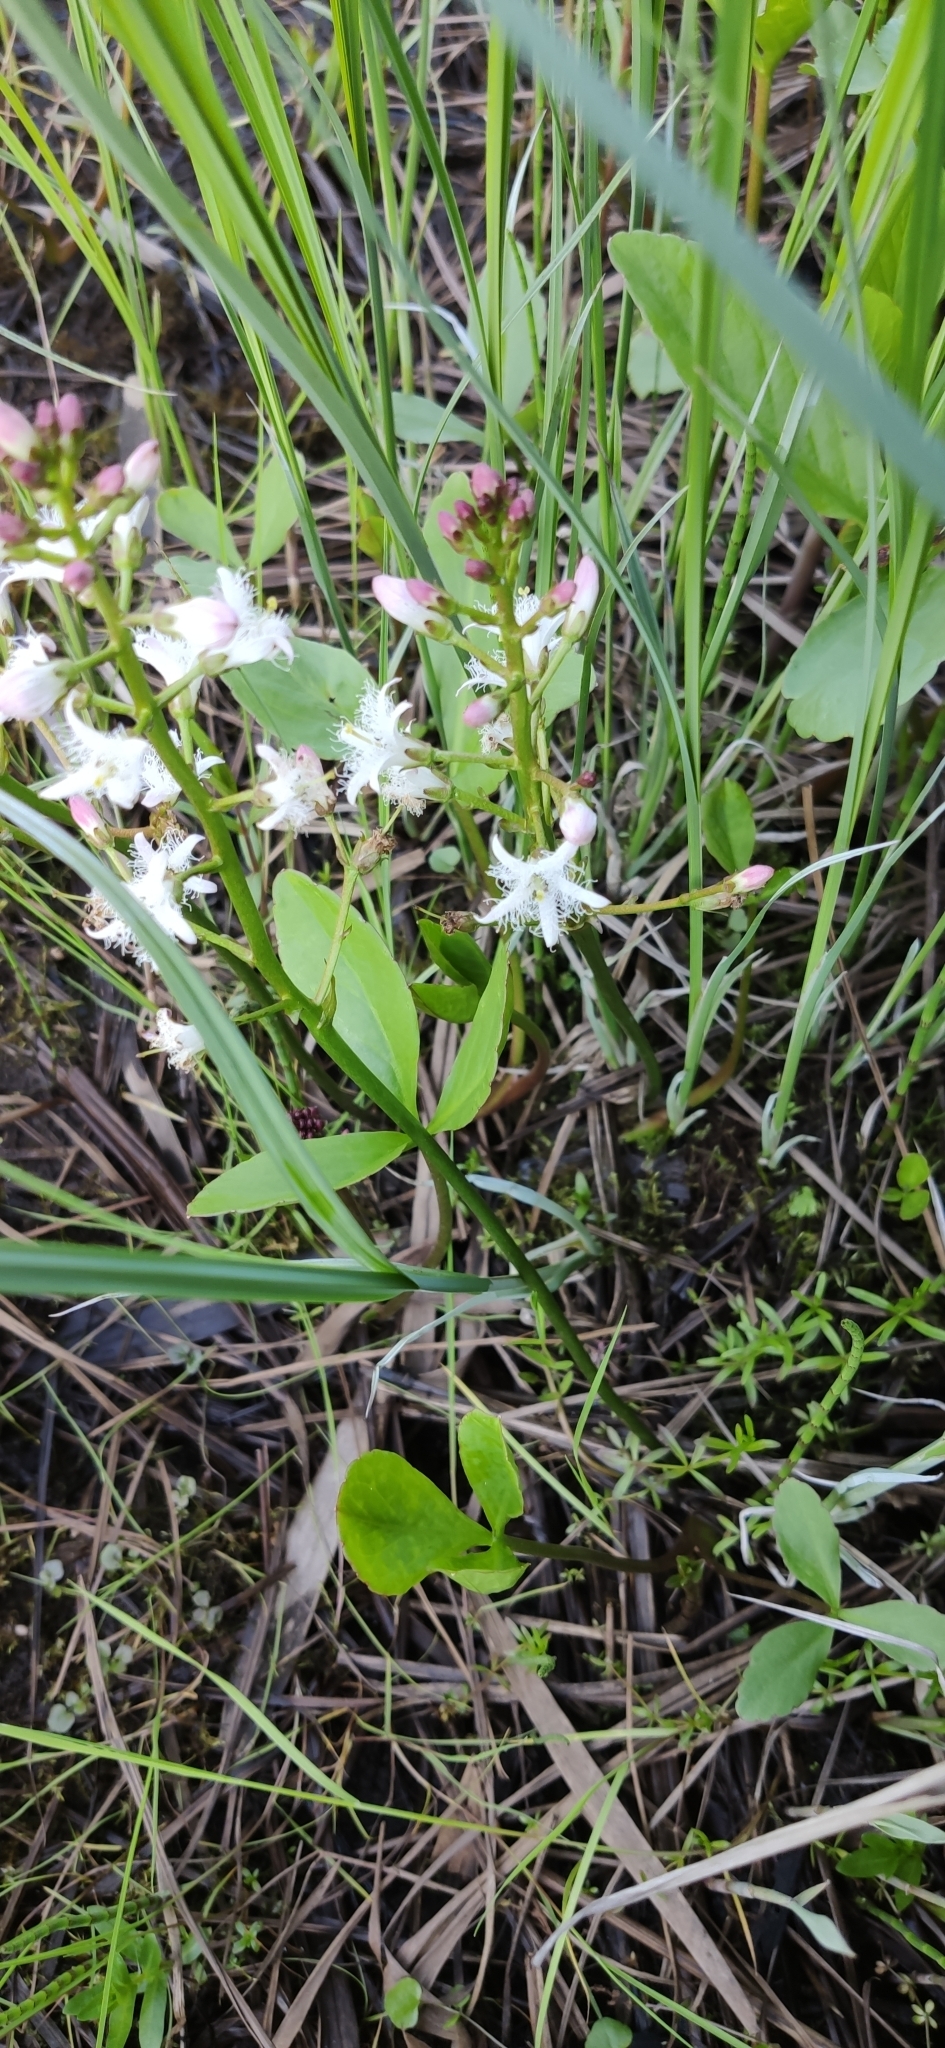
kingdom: Plantae
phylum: Tracheophyta
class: Magnoliopsida
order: Asterales
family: Menyanthaceae
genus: Menyanthes
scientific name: Menyanthes trifoliata
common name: Bogbean
